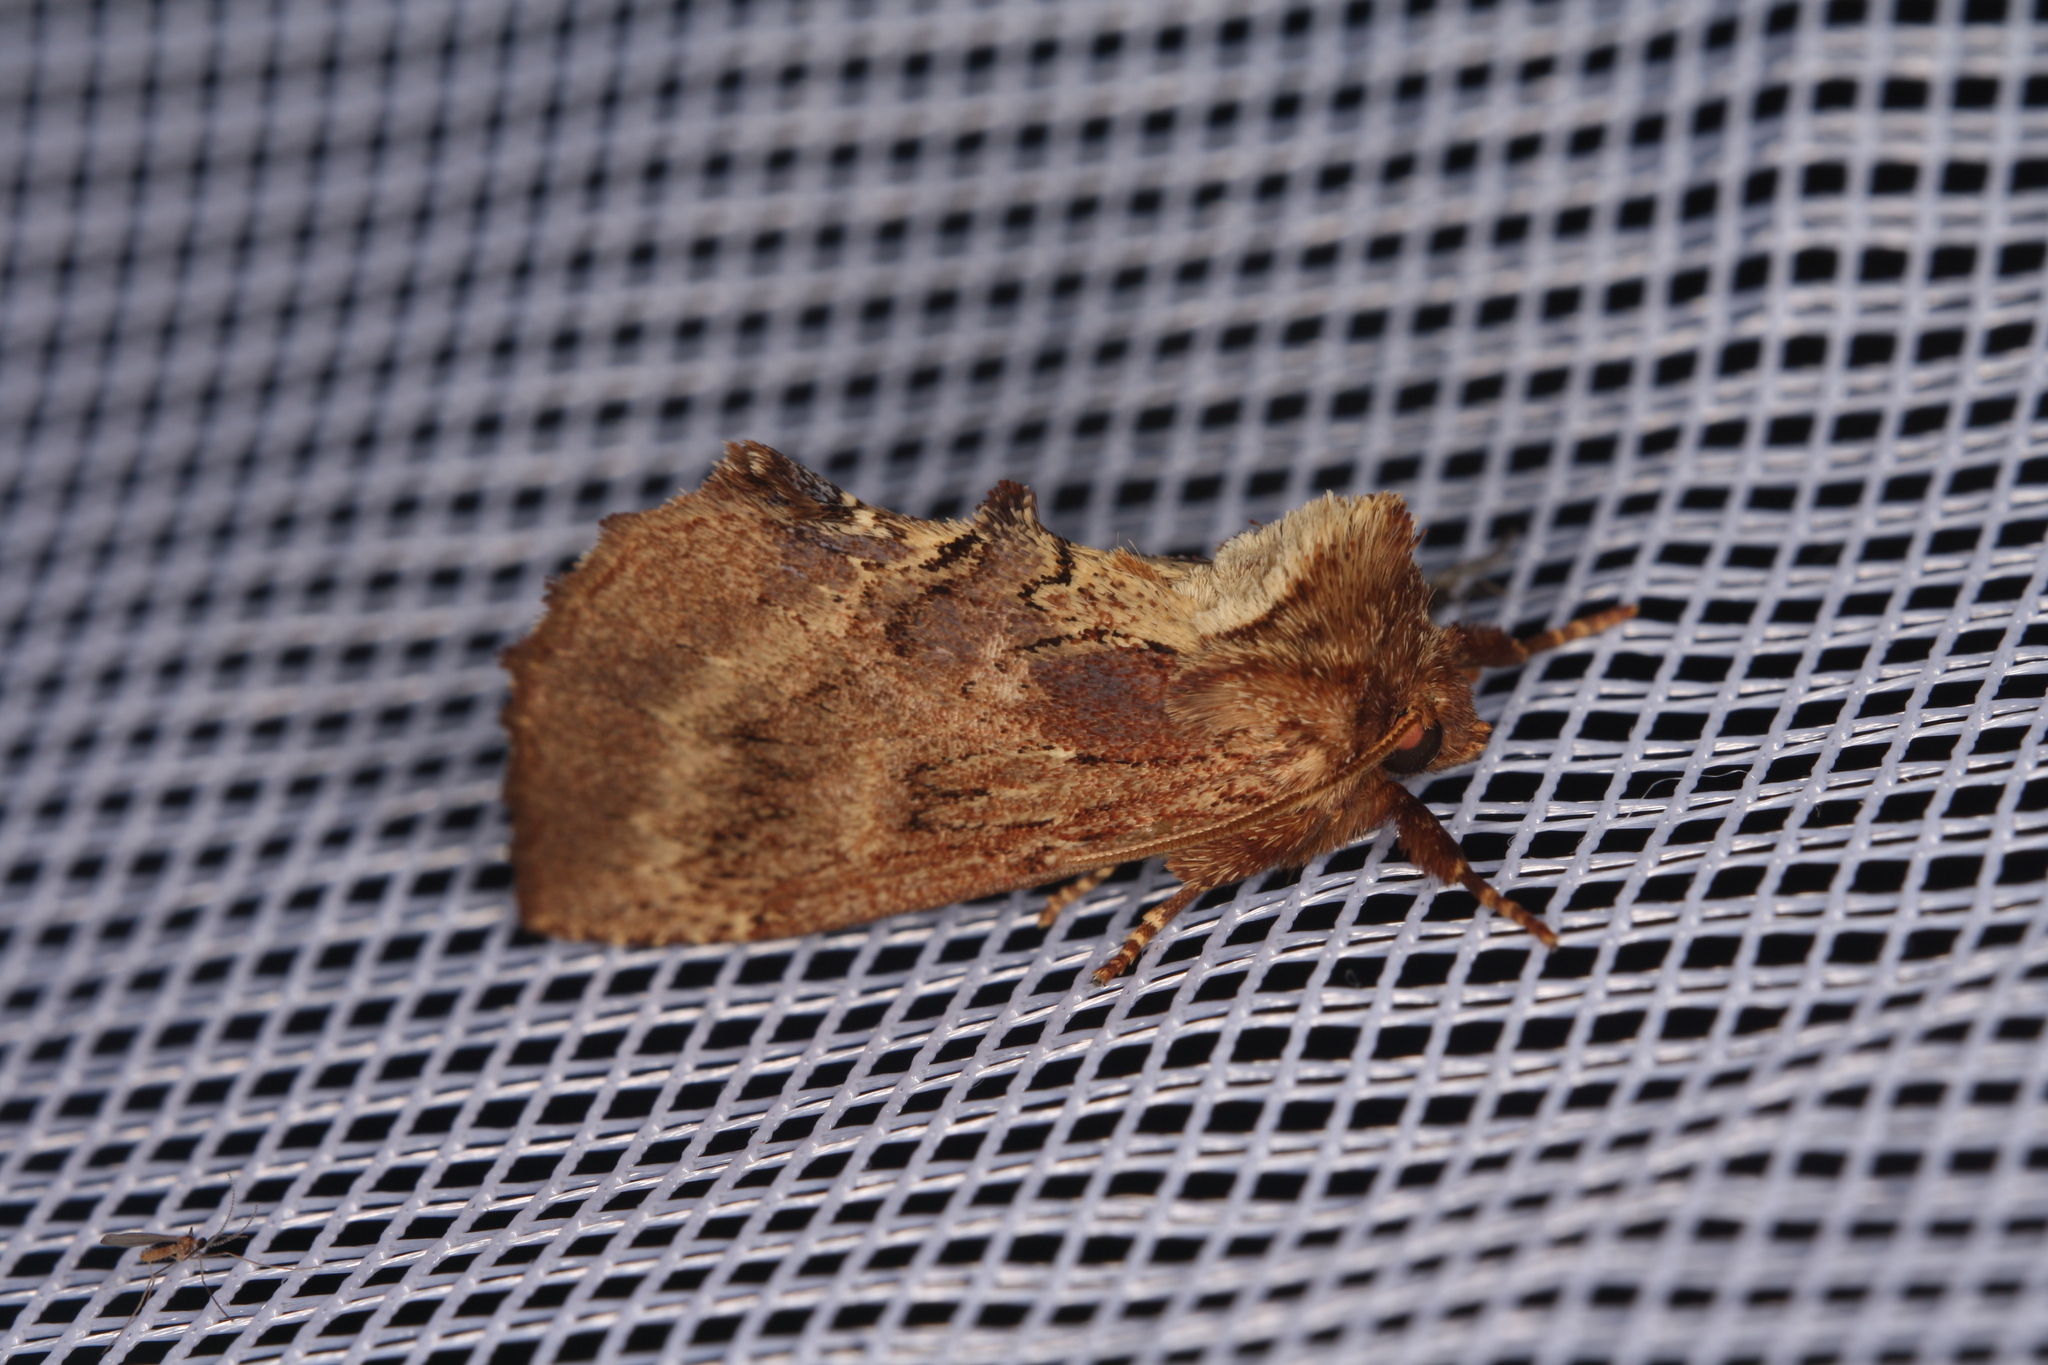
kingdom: Animalia
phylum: Arthropoda
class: Insecta
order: Lepidoptera
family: Notodontidae
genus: Ptilodon
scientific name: Ptilodon capucina
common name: Coxcomb prominent
